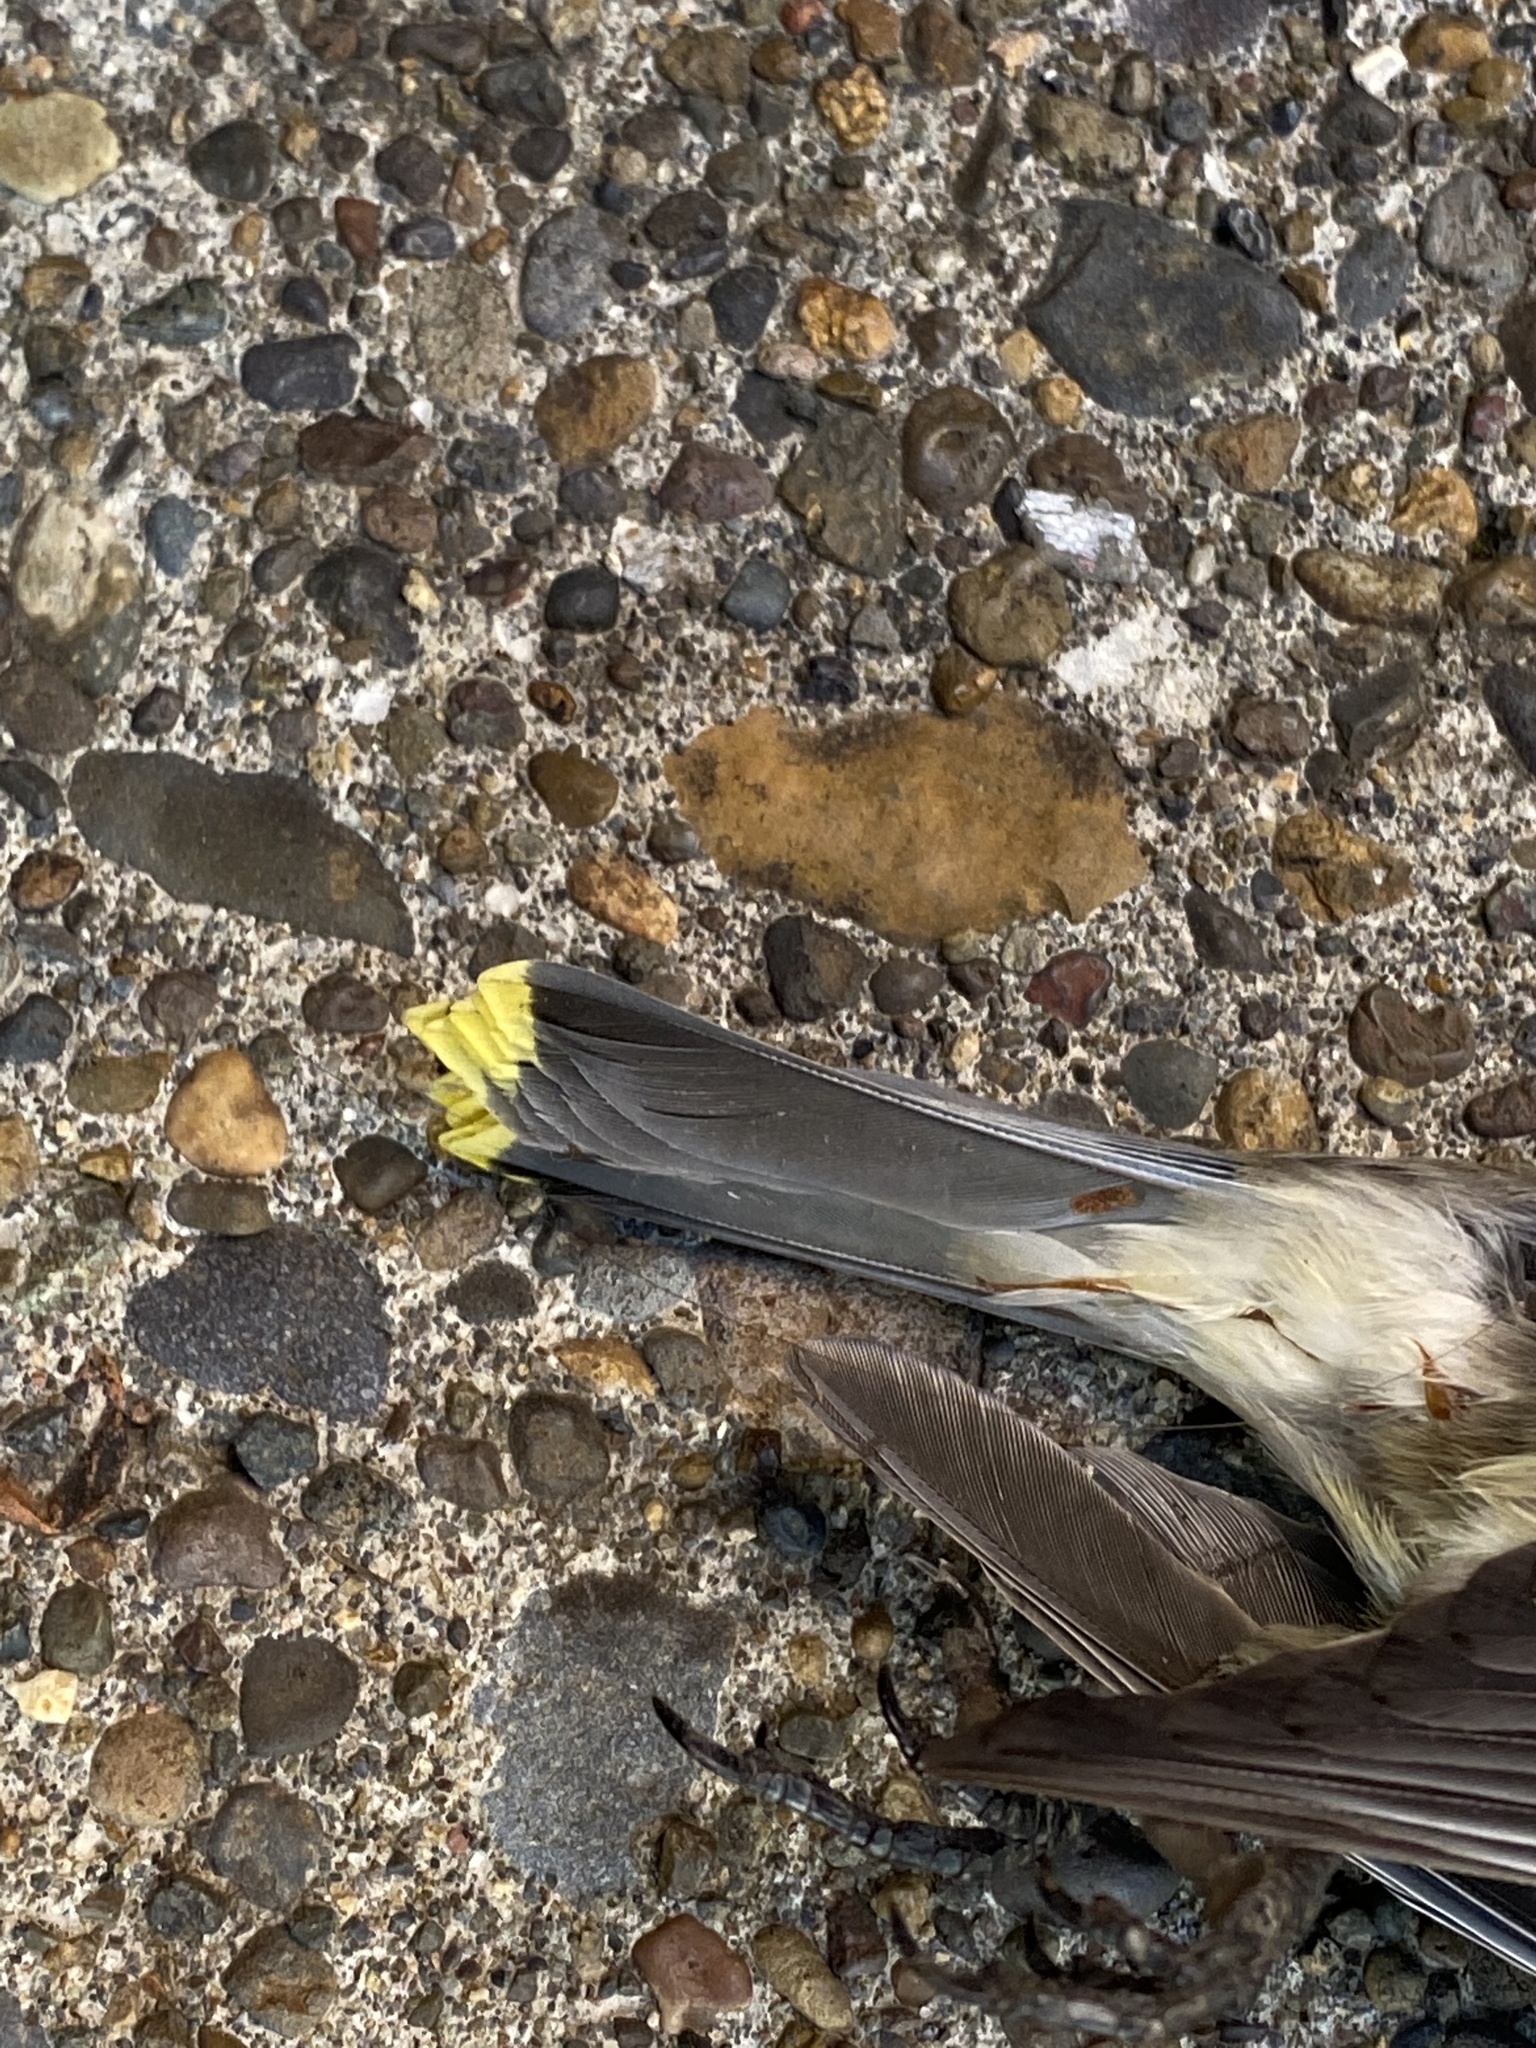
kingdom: Animalia
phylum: Chordata
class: Aves
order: Passeriformes
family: Bombycillidae
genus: Bombycilla
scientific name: Bombycilla cedrorum
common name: Cedar waxwing
